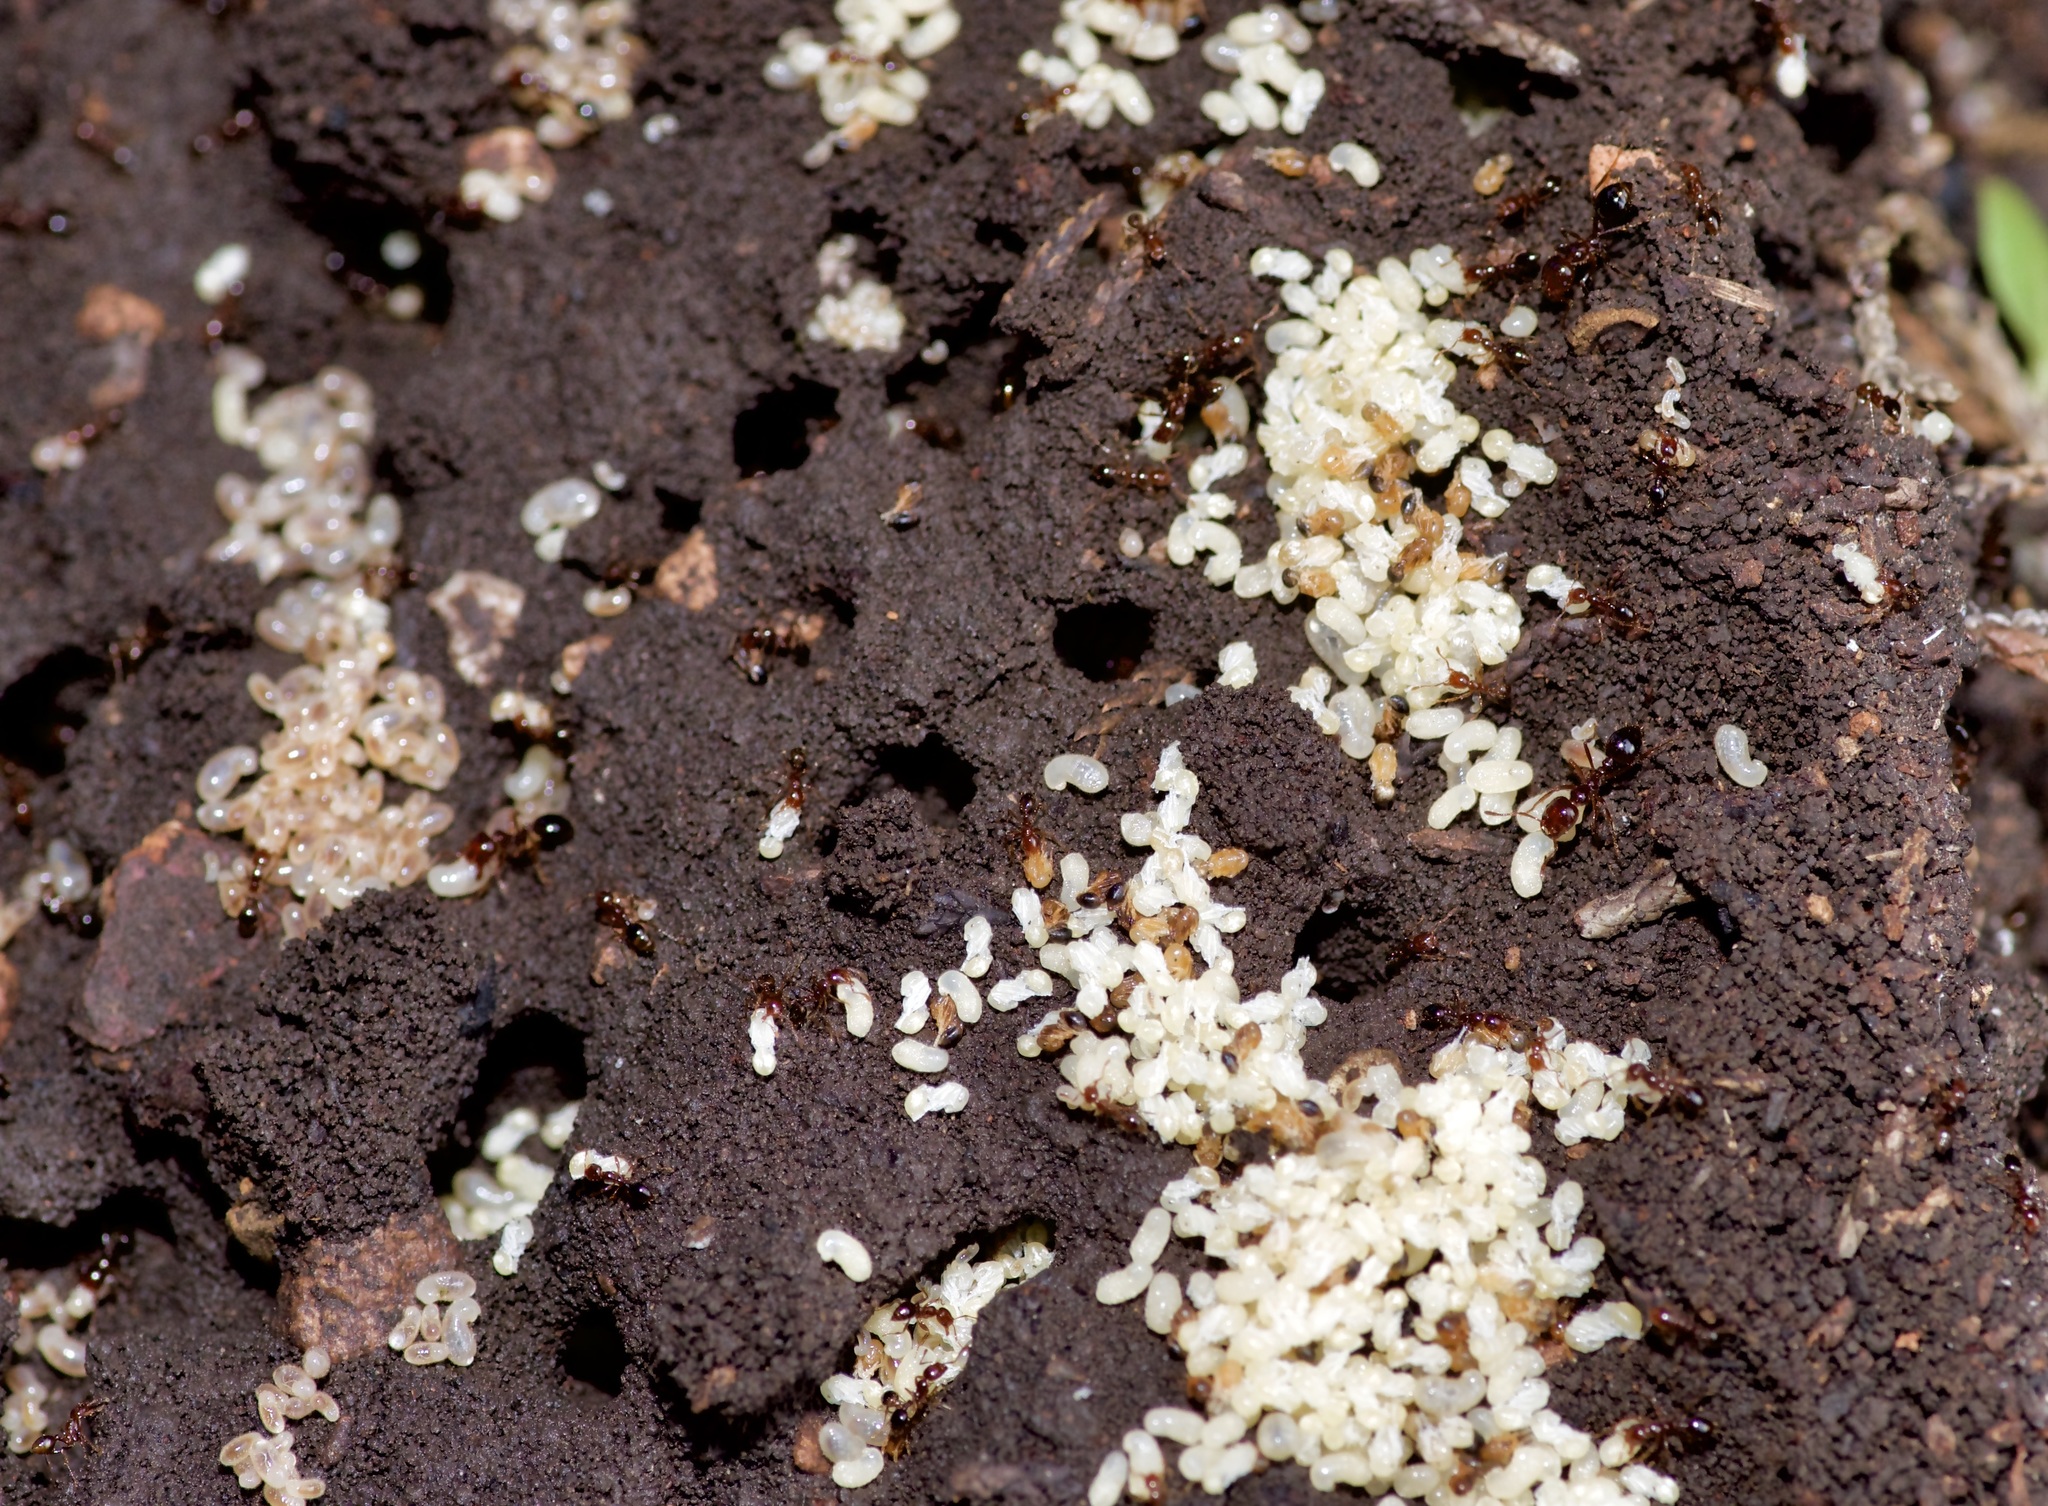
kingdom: Animalia
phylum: Arthropoda
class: Insecta
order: Hymenoptera
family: Formicidae
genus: Solenopsis
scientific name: Solenopsis invicta
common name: Red imported fire ant
